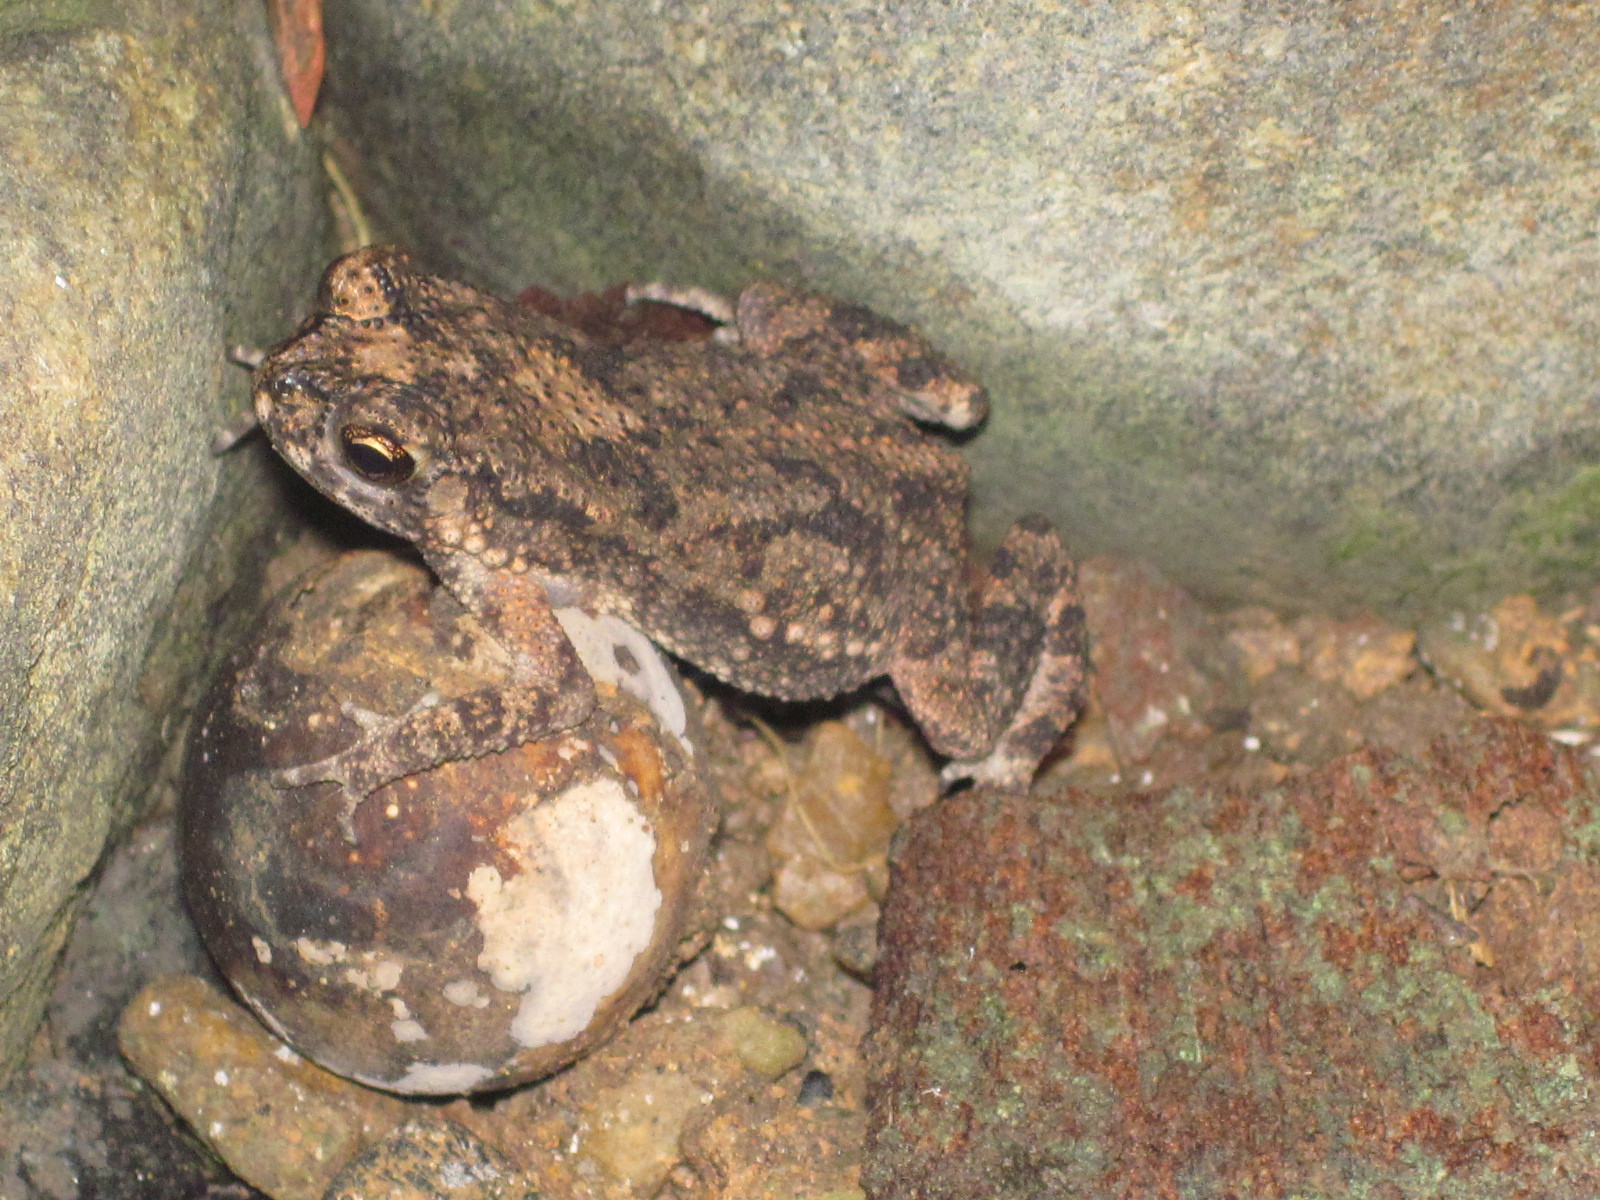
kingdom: Animalia
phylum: Chordata
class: Amphibia
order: Anura
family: Bufonidae
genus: Duttaphrynus
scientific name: Duttaphrynus noellerti
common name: Noellert's toad
